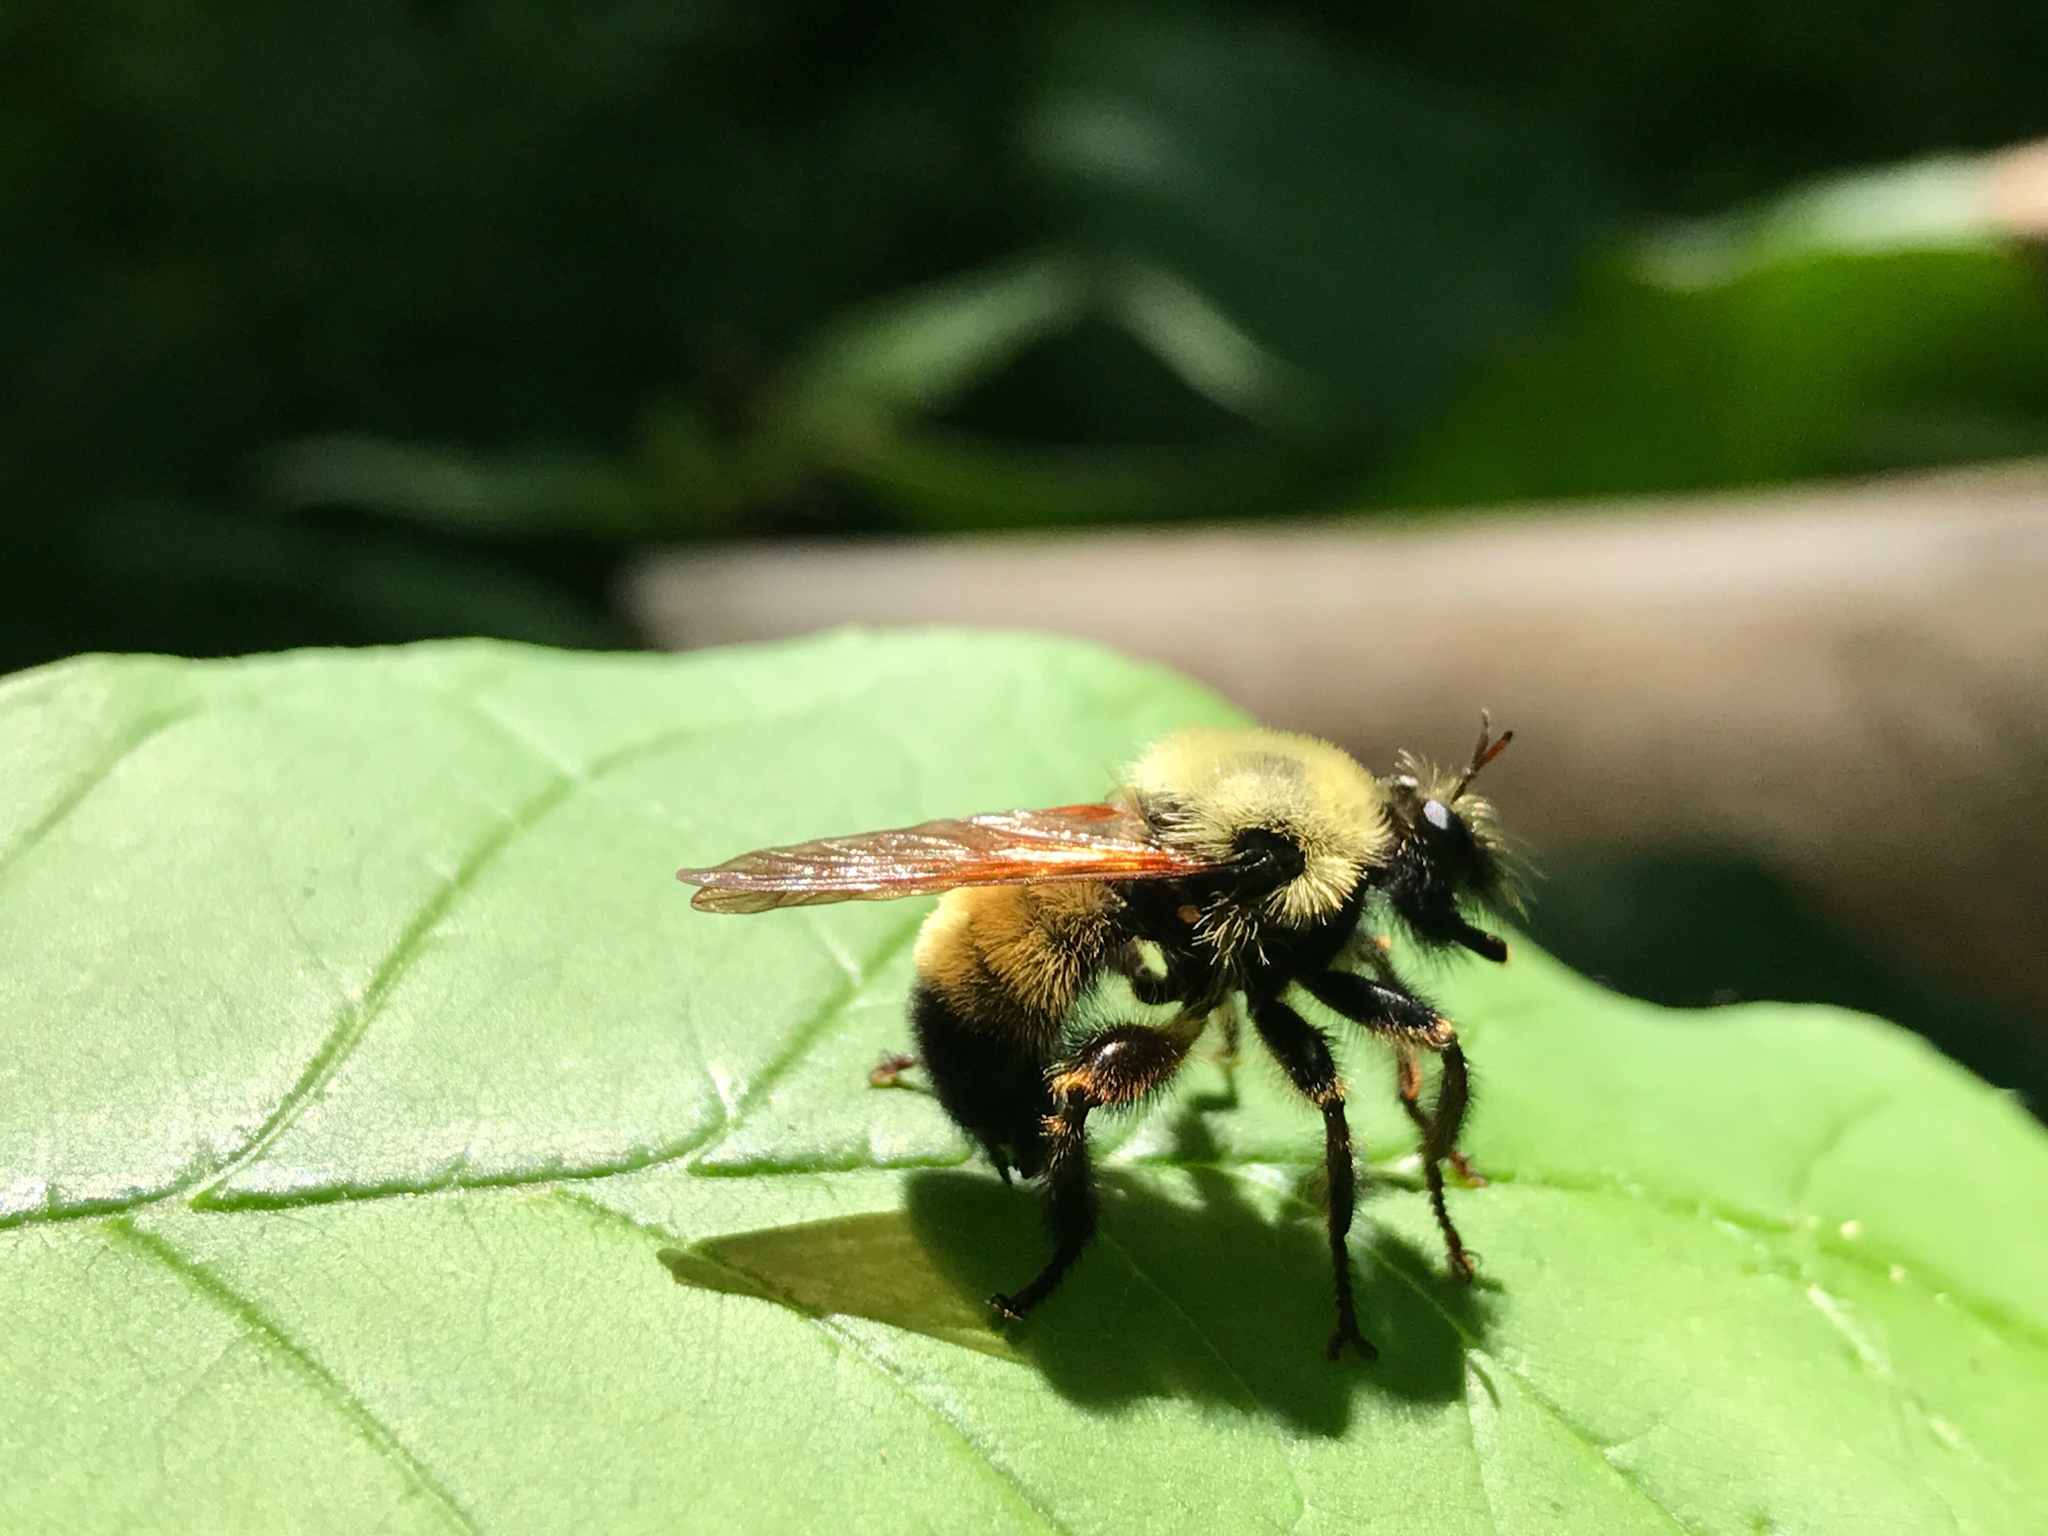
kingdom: Animalia
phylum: Arthropoda
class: Insecta
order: Diptera
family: Asilidae
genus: Laphria
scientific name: Laphria thoracica
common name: Bumble bee mimic robber fly
